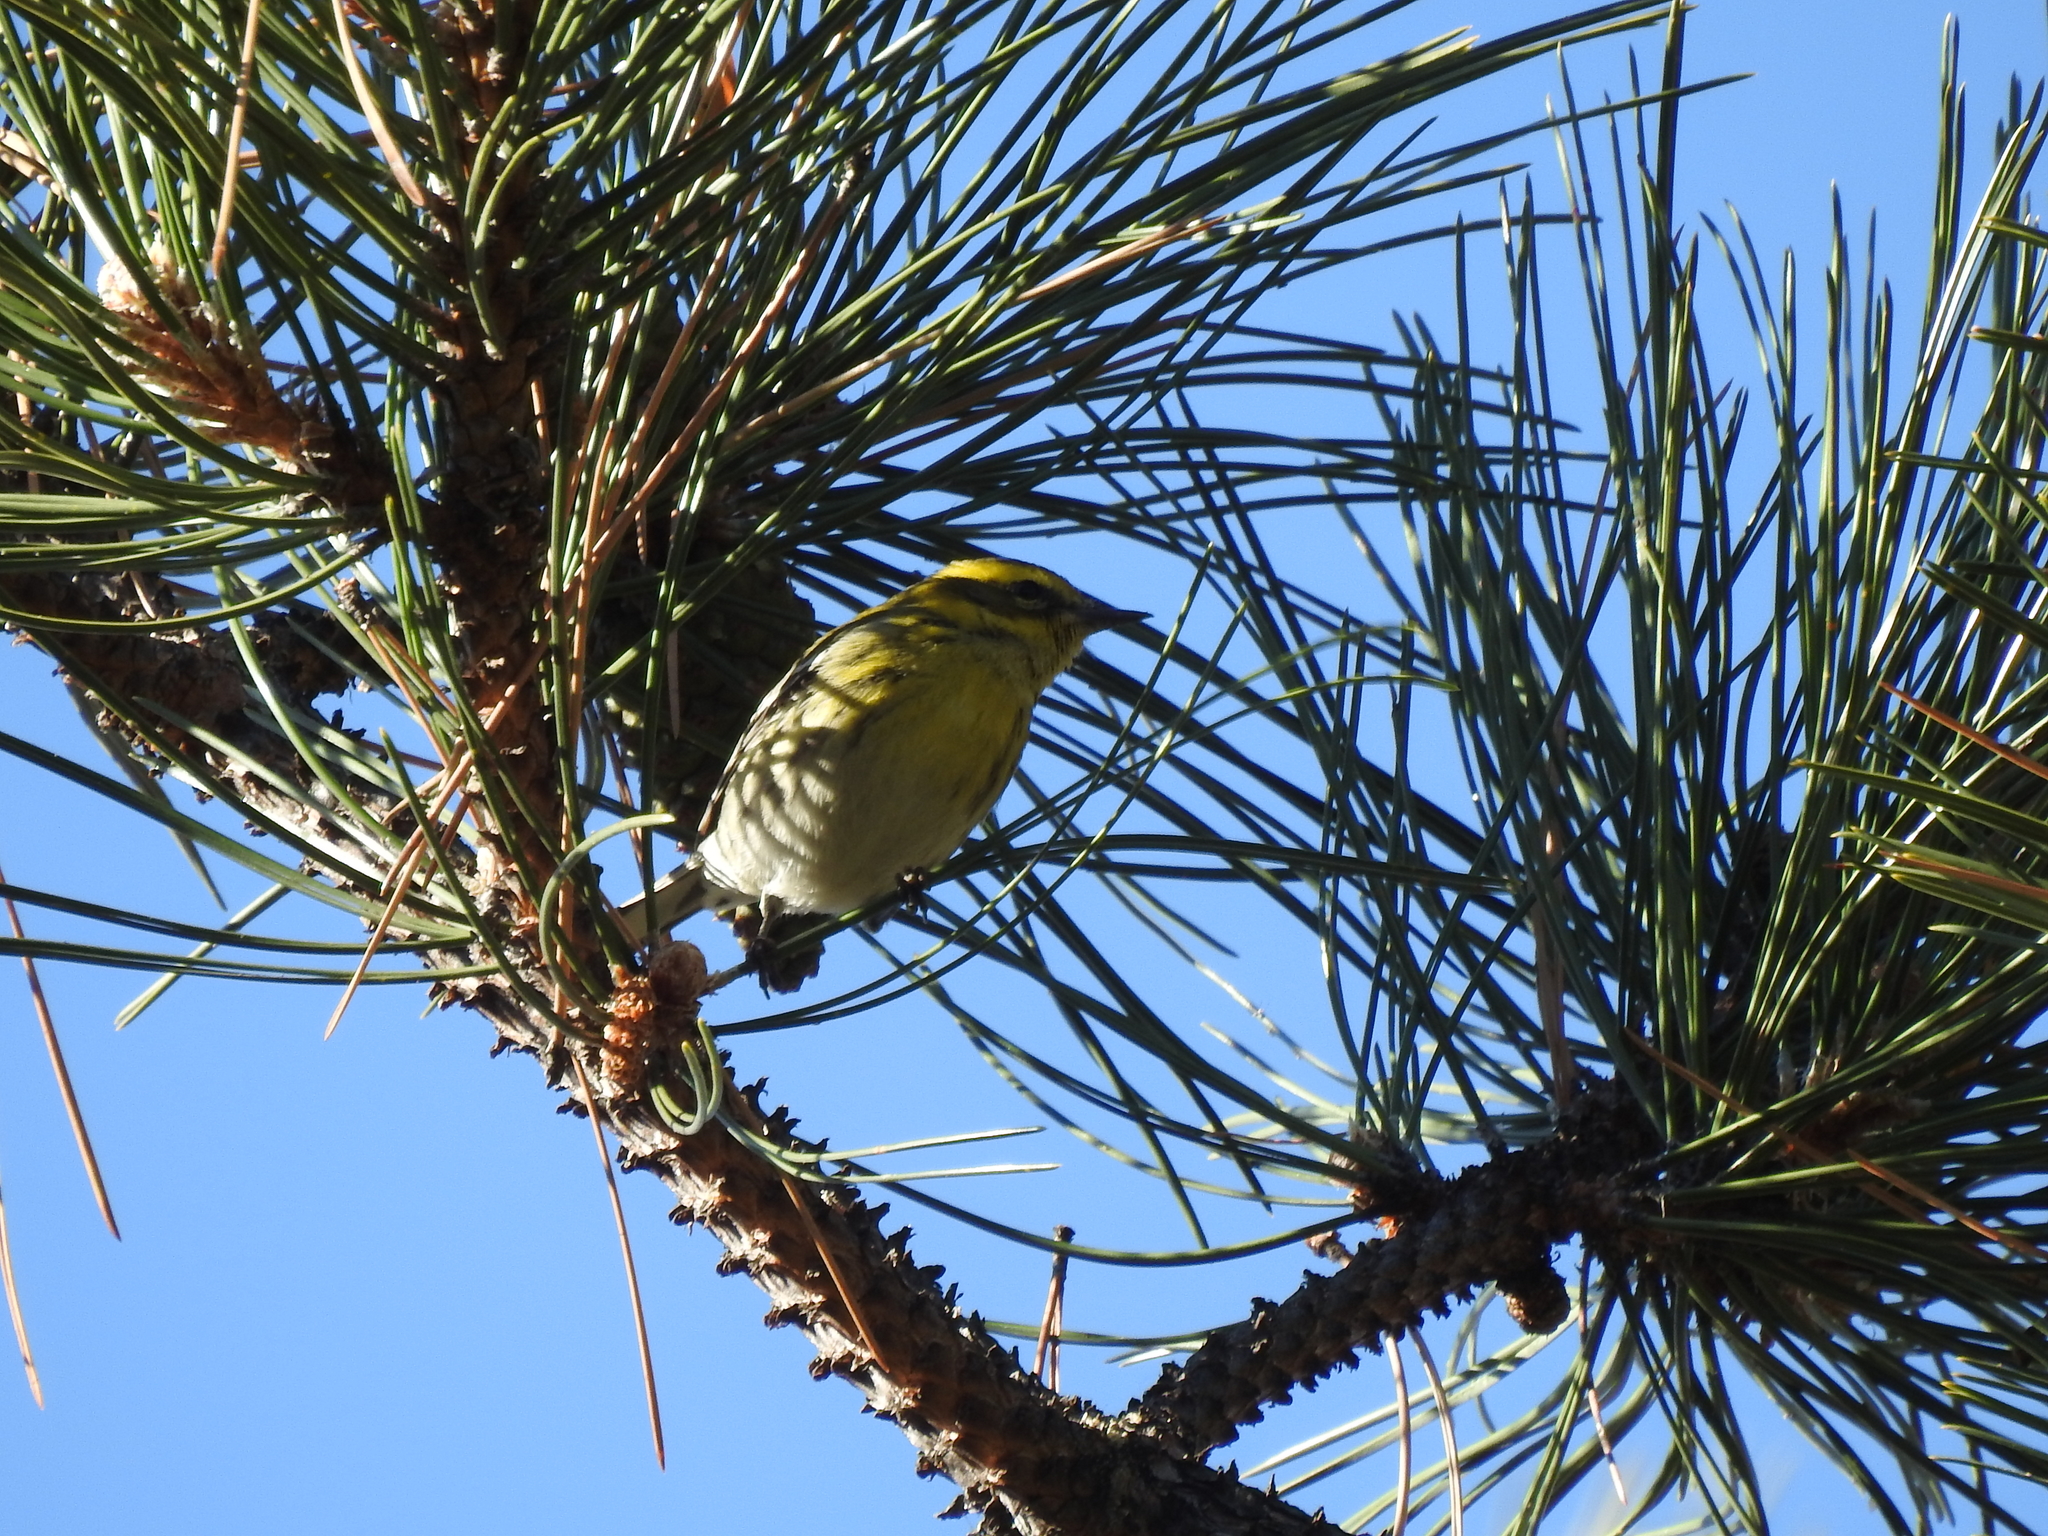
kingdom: Animalia
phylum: Chordata
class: Aves
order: Passeriformes
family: Parulidae
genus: Setophaga
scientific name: Setophaga townsendi
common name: Townsend's warbler
